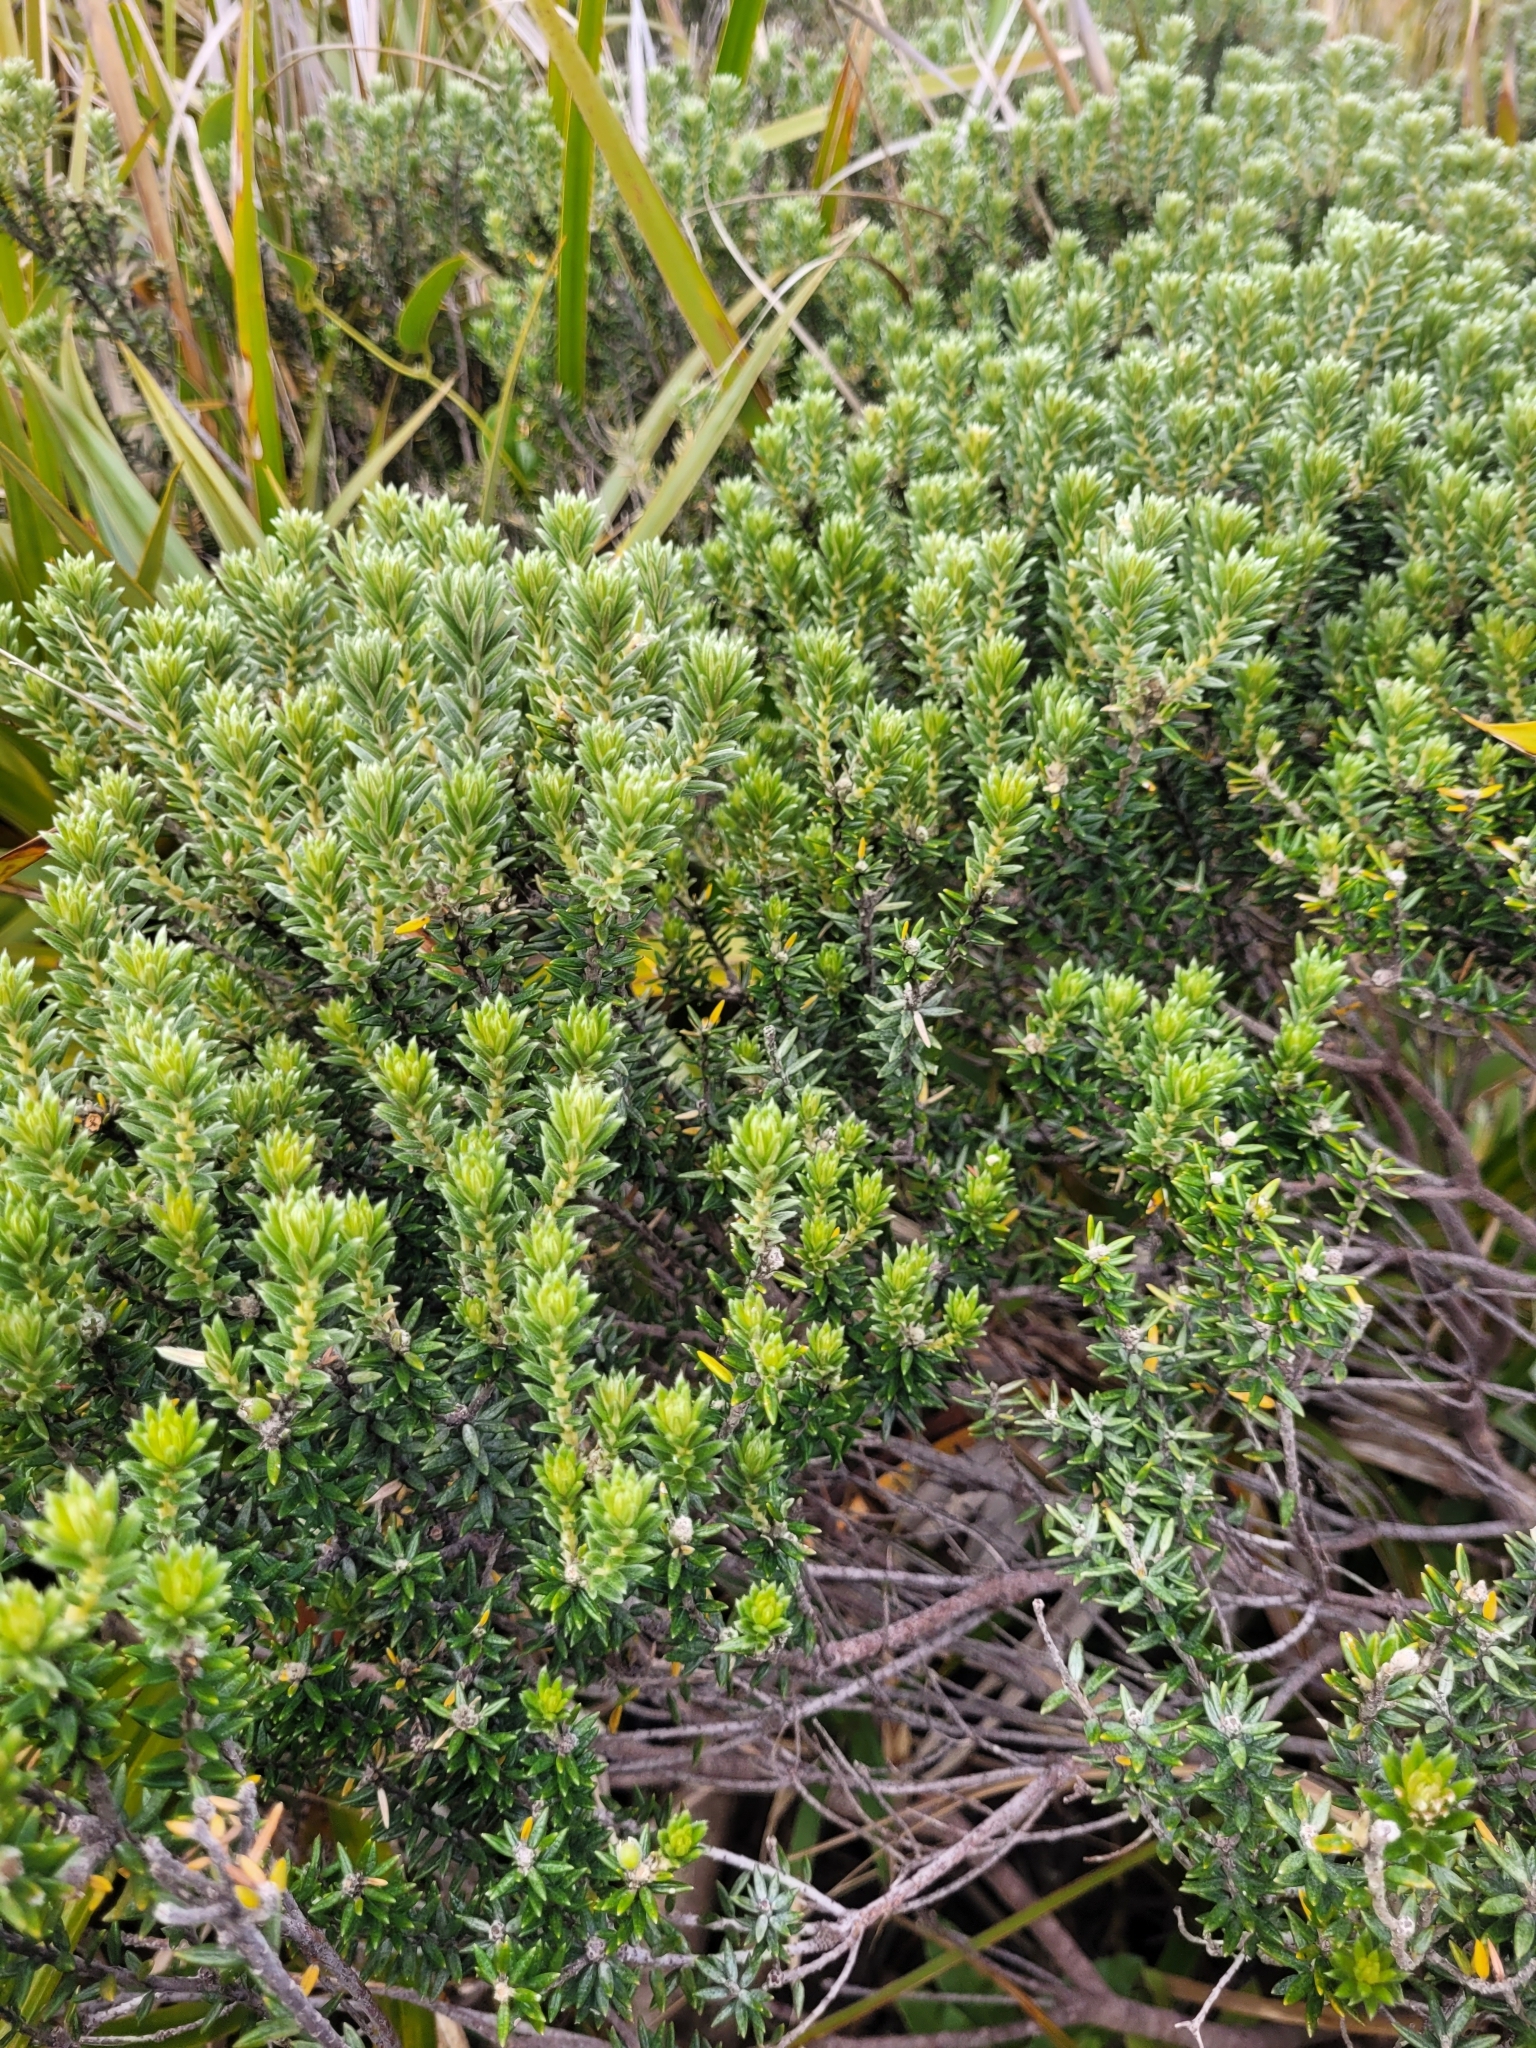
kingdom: Plantae
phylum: Tracheophyta
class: Magnoliopsida
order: Rosales
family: Rhamnaceae
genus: Phylica
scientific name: Phylica nitida
